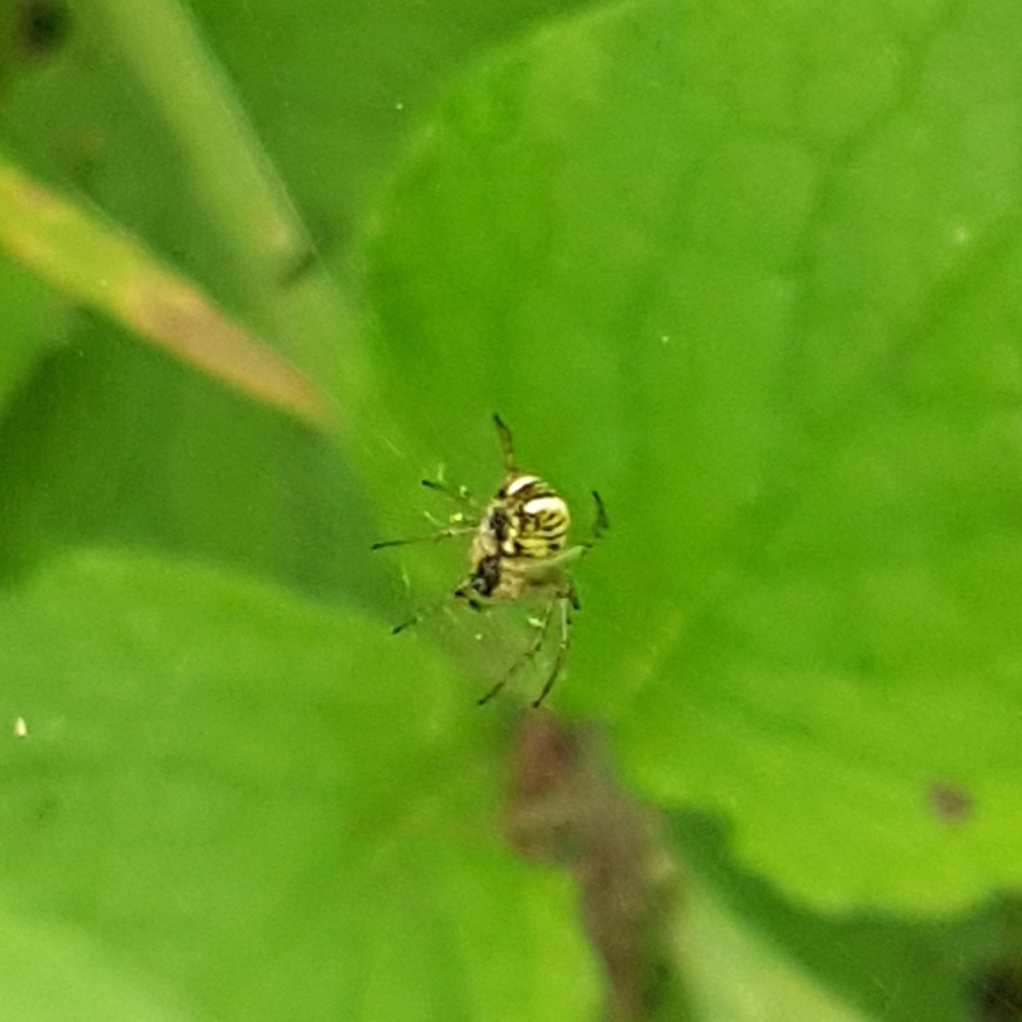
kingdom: Animalia
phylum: Arthropoda
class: Arachnida
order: Araneae
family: Araneidae
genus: Mangora
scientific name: Mangora acalypha
